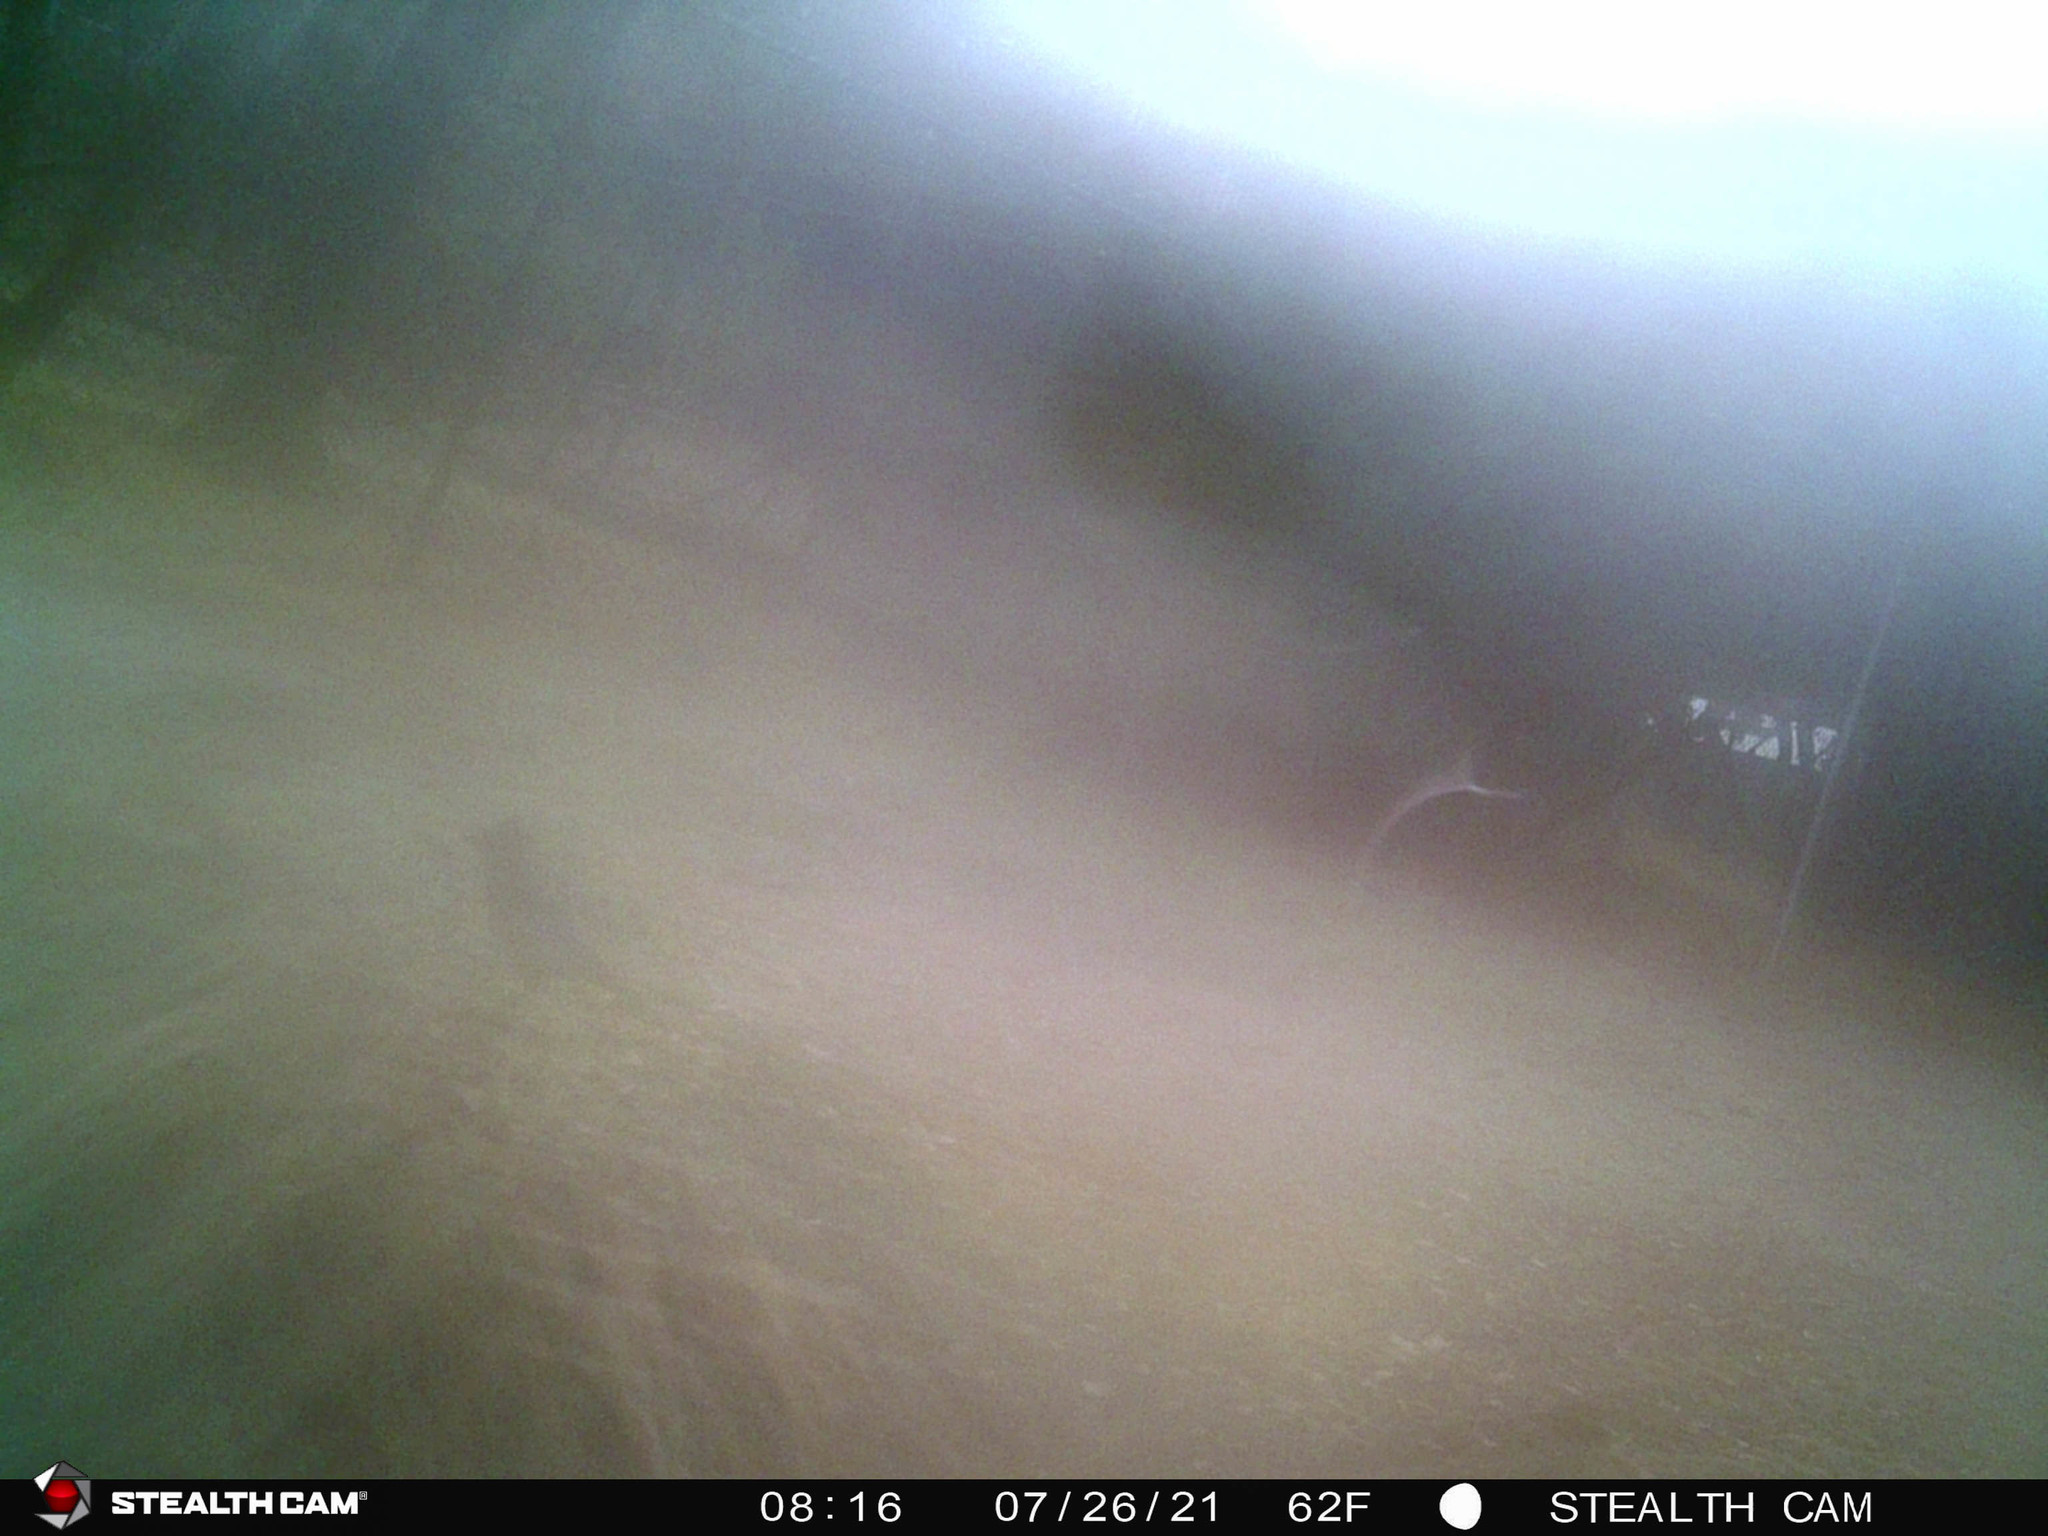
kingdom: Animalia
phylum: Chordata
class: Aves
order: Passeriformes
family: Corvidae
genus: Cyanocitta
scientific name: Cyanocitta stelleri
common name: Steller's jay
